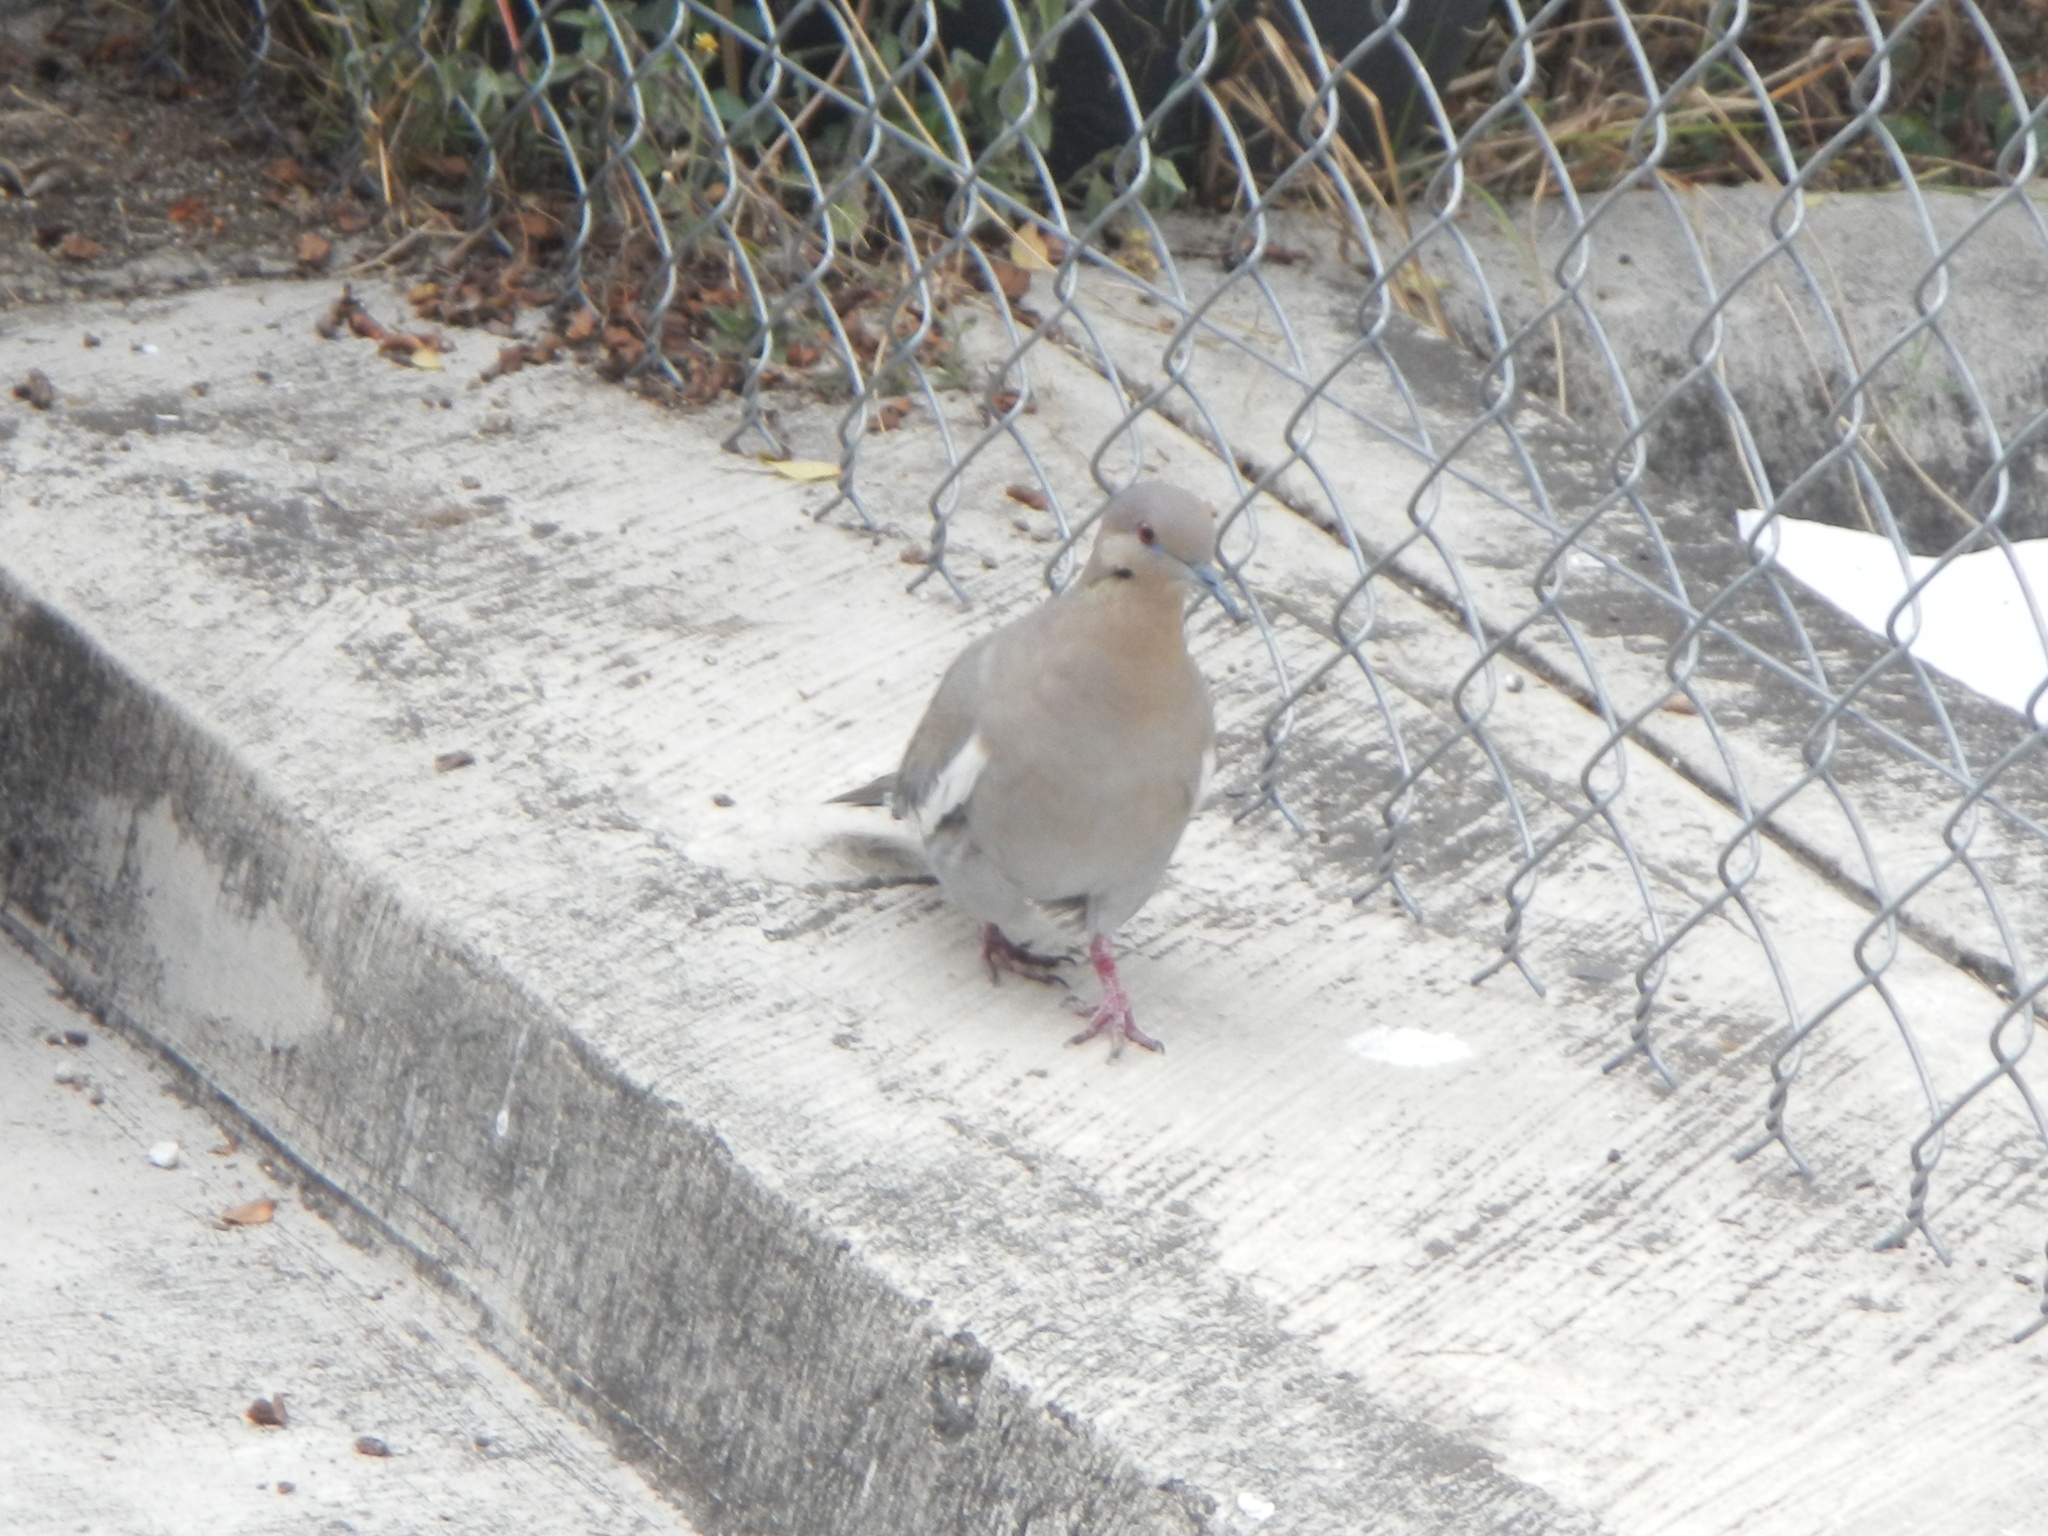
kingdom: Animalia
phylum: Chordata
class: Aves
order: Columbiformes
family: Columbidae
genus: Zenaida
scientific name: Zenaida asiatica
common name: White-winged dove
